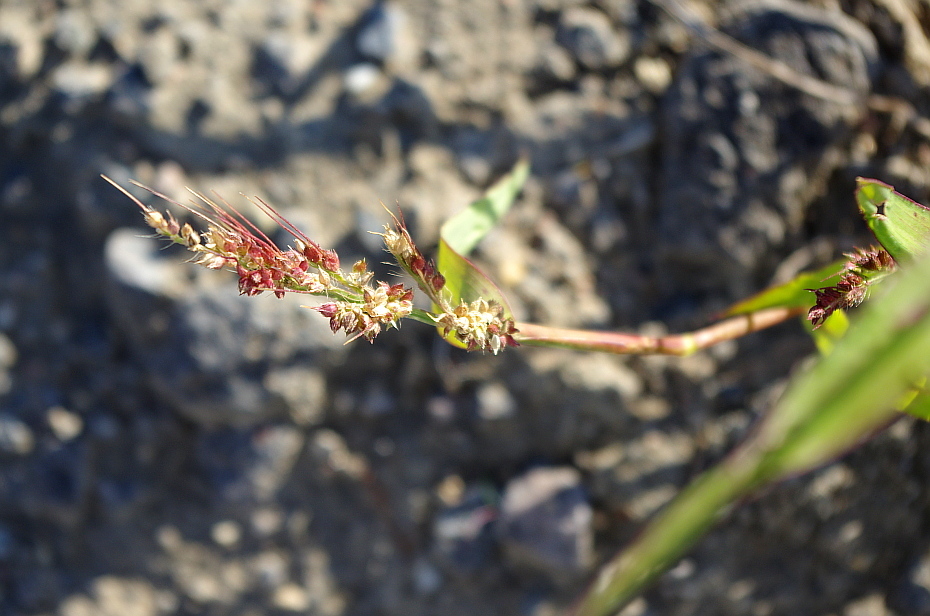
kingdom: Plantae
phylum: Tracheophyta
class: Liliopsida
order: Poales
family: Poaceae
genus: Echinochloa
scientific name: Echinochloa crus-galli
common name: Cockspur
